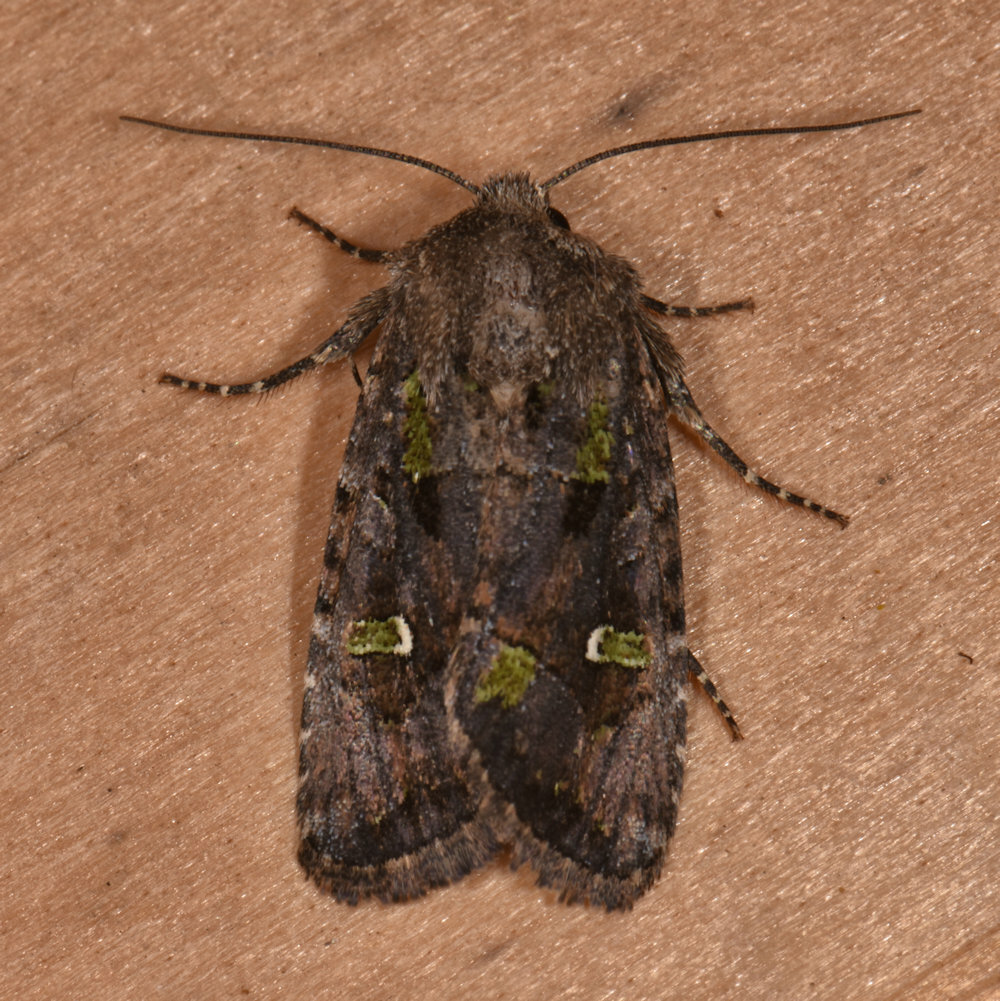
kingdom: Animalia
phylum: Arthropoda
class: Insecta
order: Lepidoptera
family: Noctuidae
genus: Lacinipolia
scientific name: Lacinipolia renigera
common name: Kidney-spotted minor
